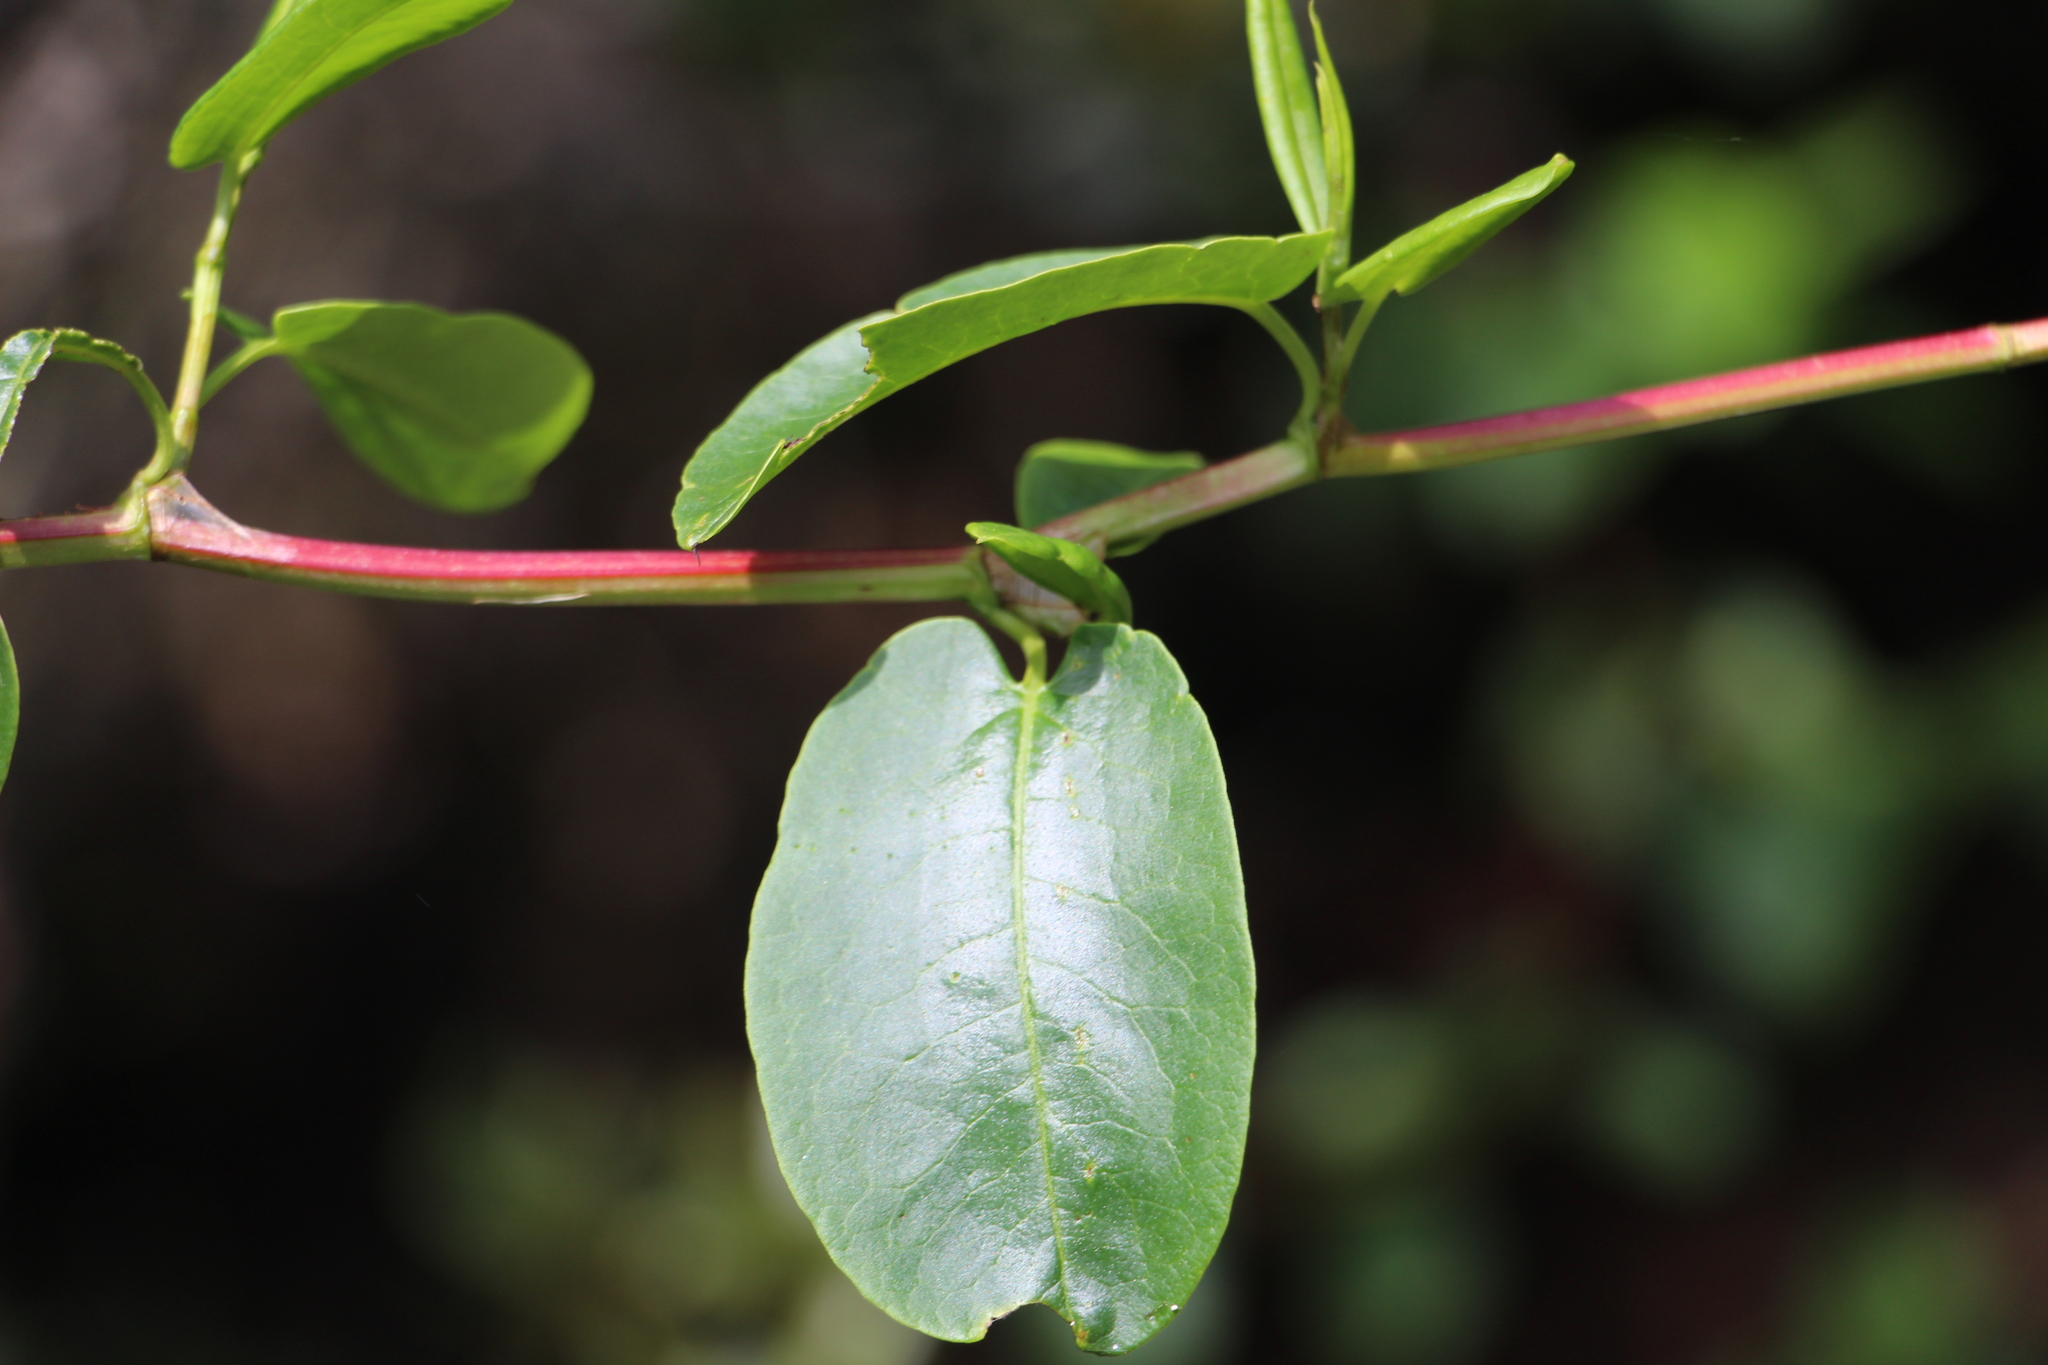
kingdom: Plantae
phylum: Tracheophyta
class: Magnoliopsida
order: Caryophyllales
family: Polygonaceae
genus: Muehlenbeckia
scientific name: Muehlenbeckia tamnifolia
